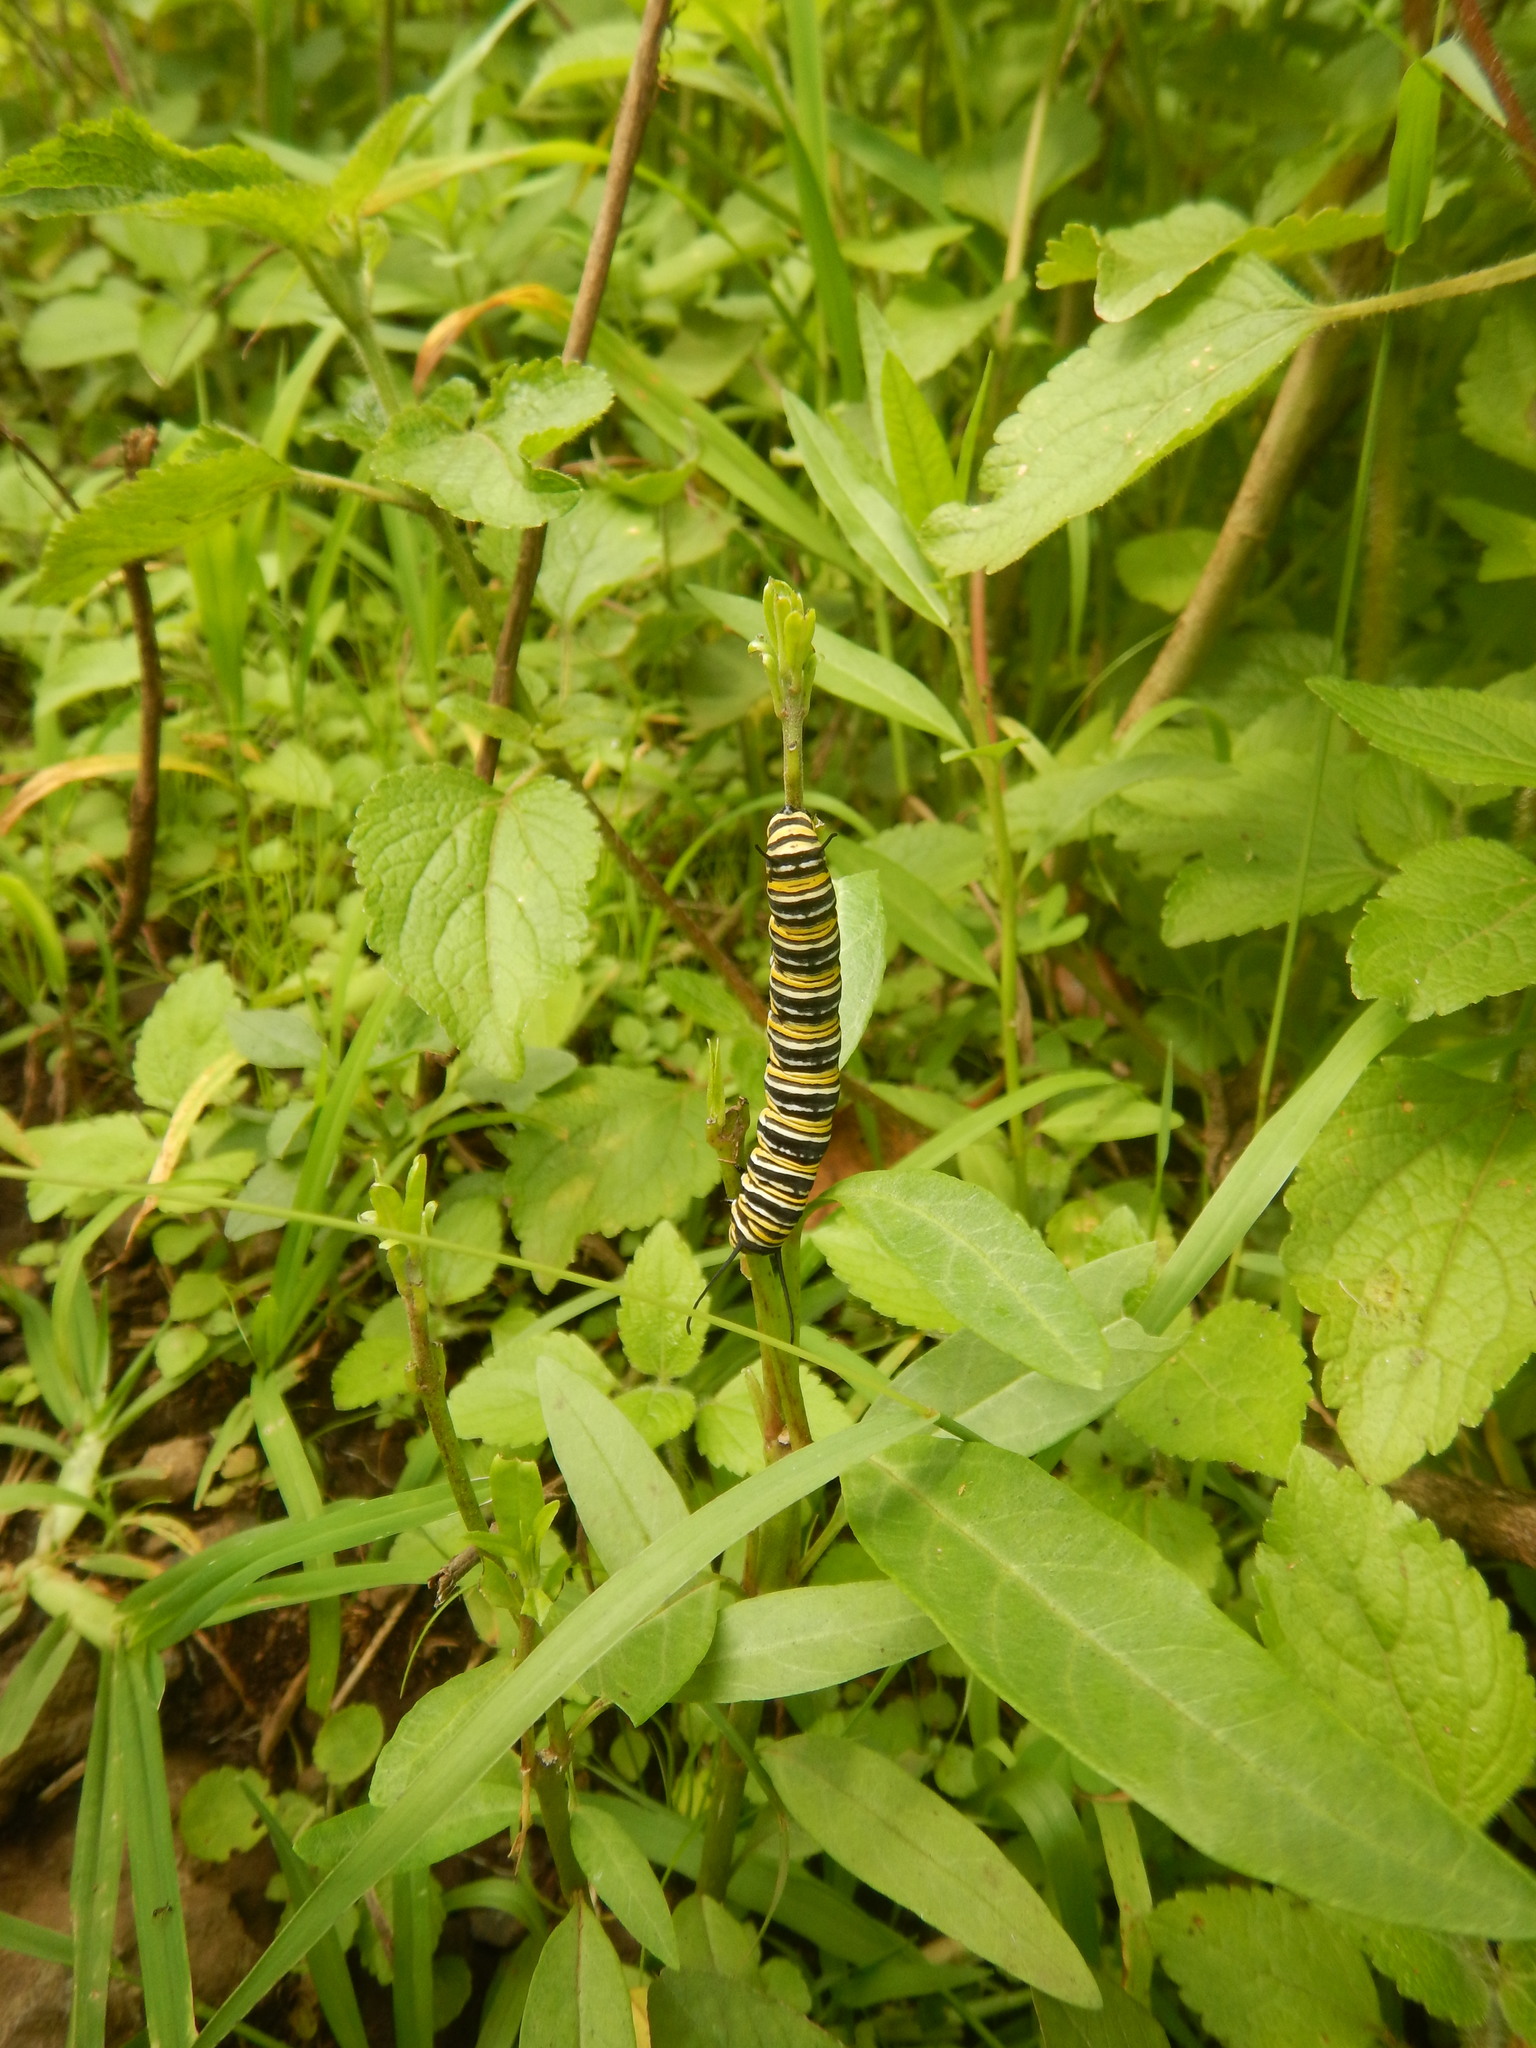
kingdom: Animalia
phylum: Arthropoda
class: Insecta
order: Lepidoptera
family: Nymphalidae
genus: Danaus
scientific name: Danaus plexippus
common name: Monarch
